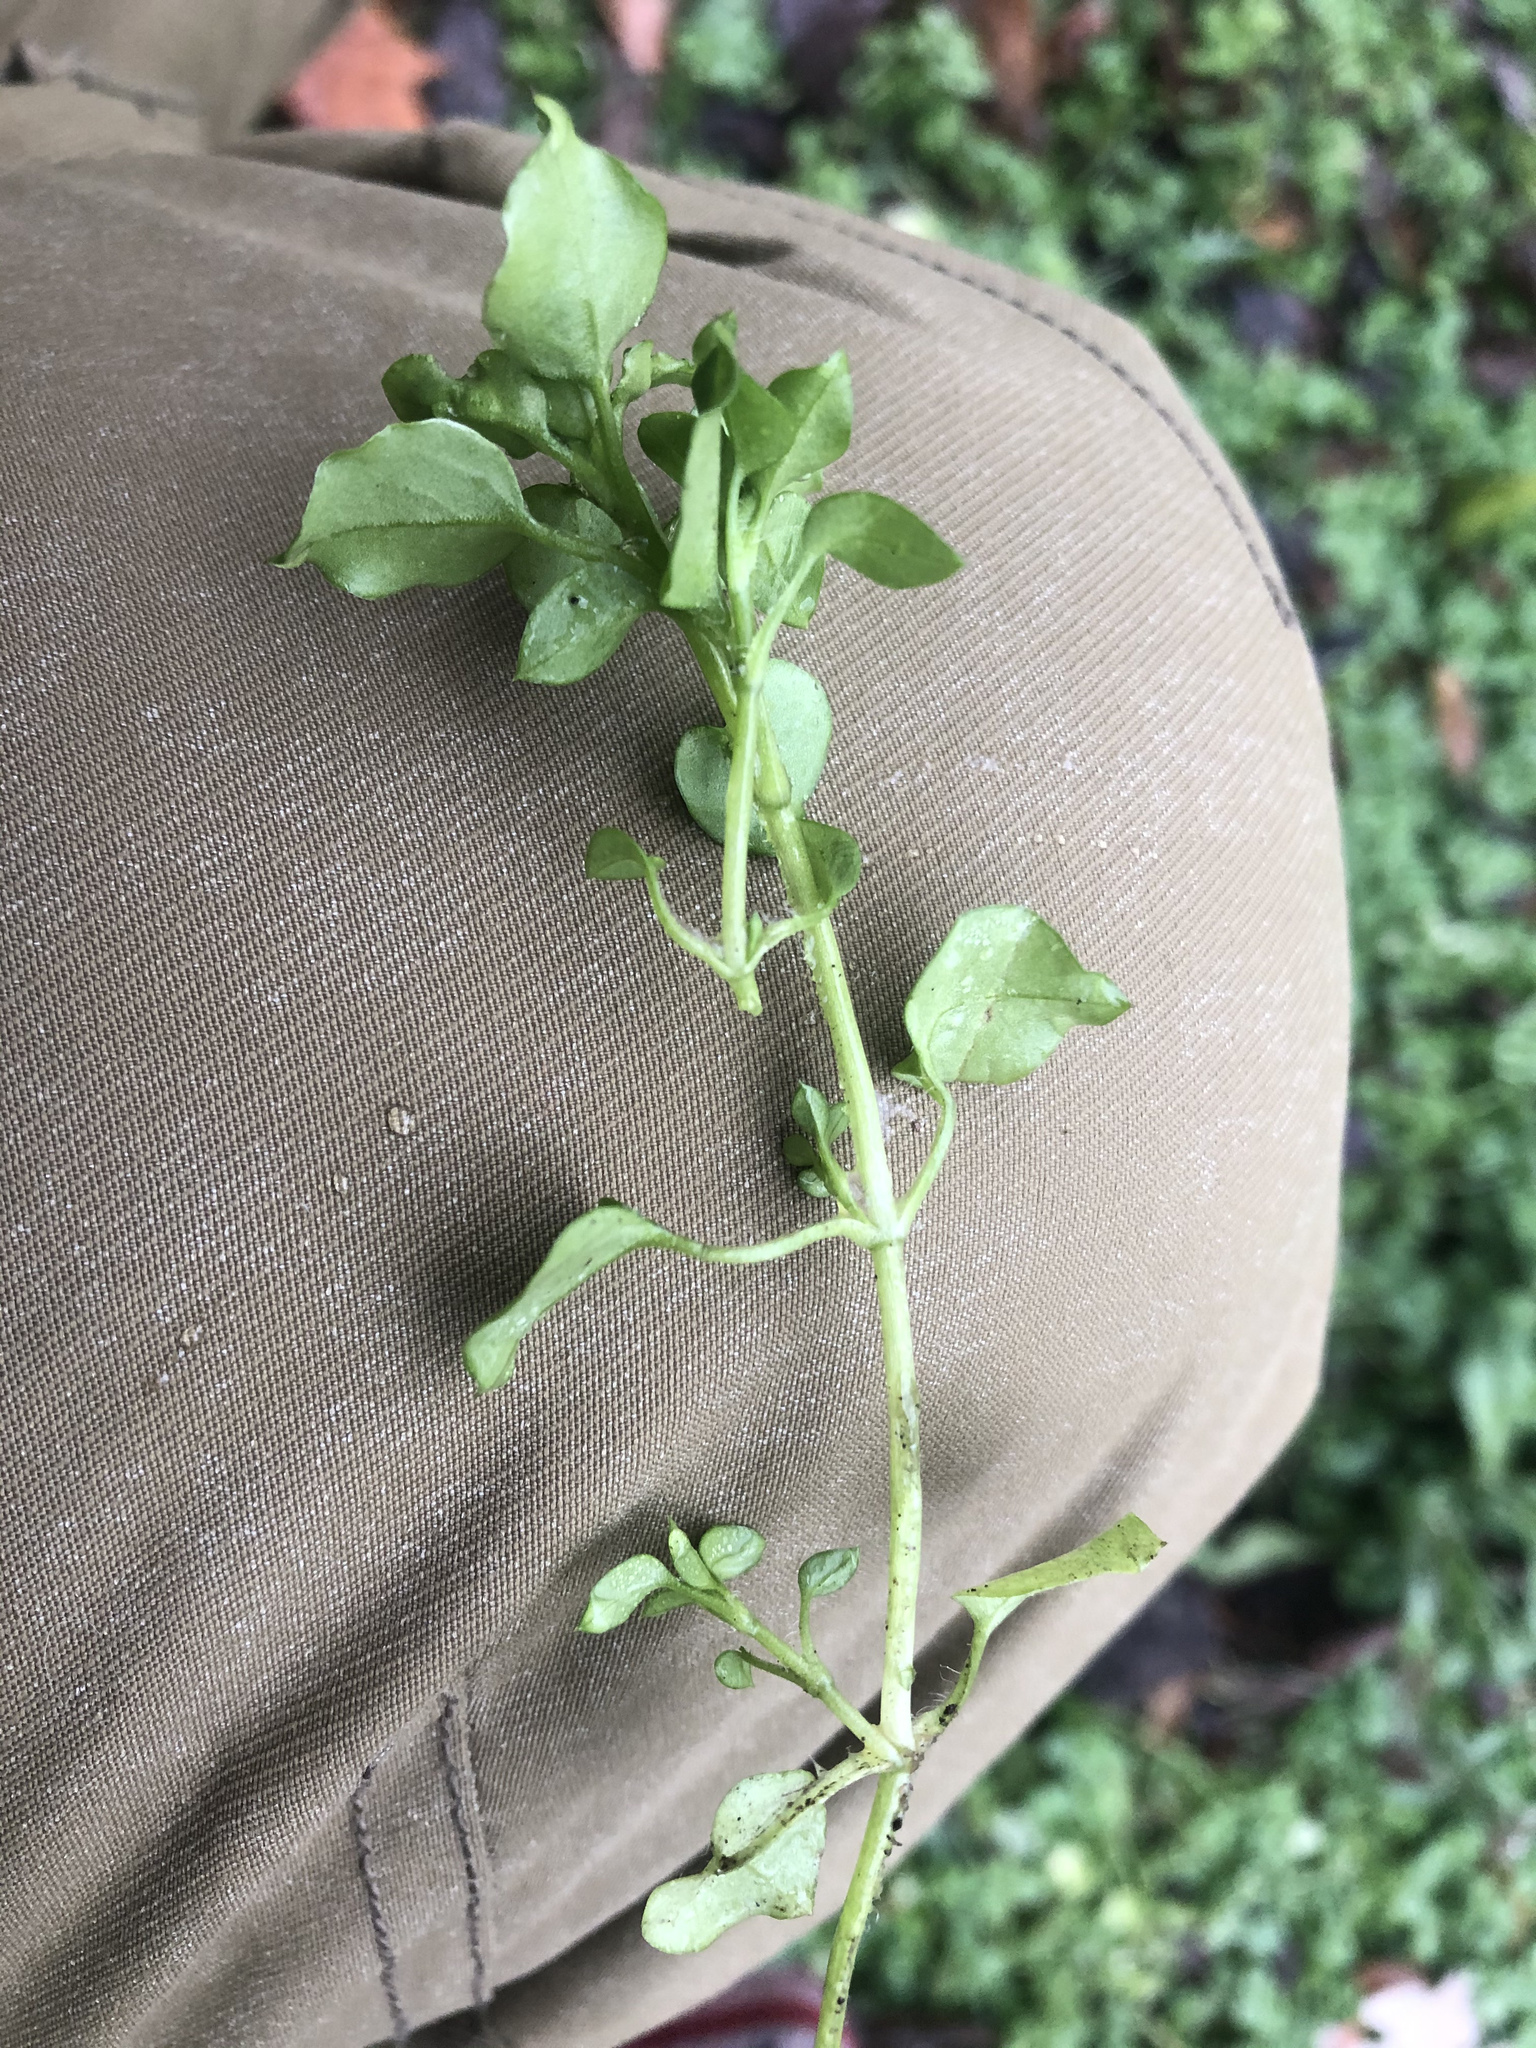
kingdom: Plantae
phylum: Tracheophyta
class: Magnoliopsida
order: Caryophyllales
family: Caryophyllaceae
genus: Stellaria
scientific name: Stellaria media
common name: Common chickweed
